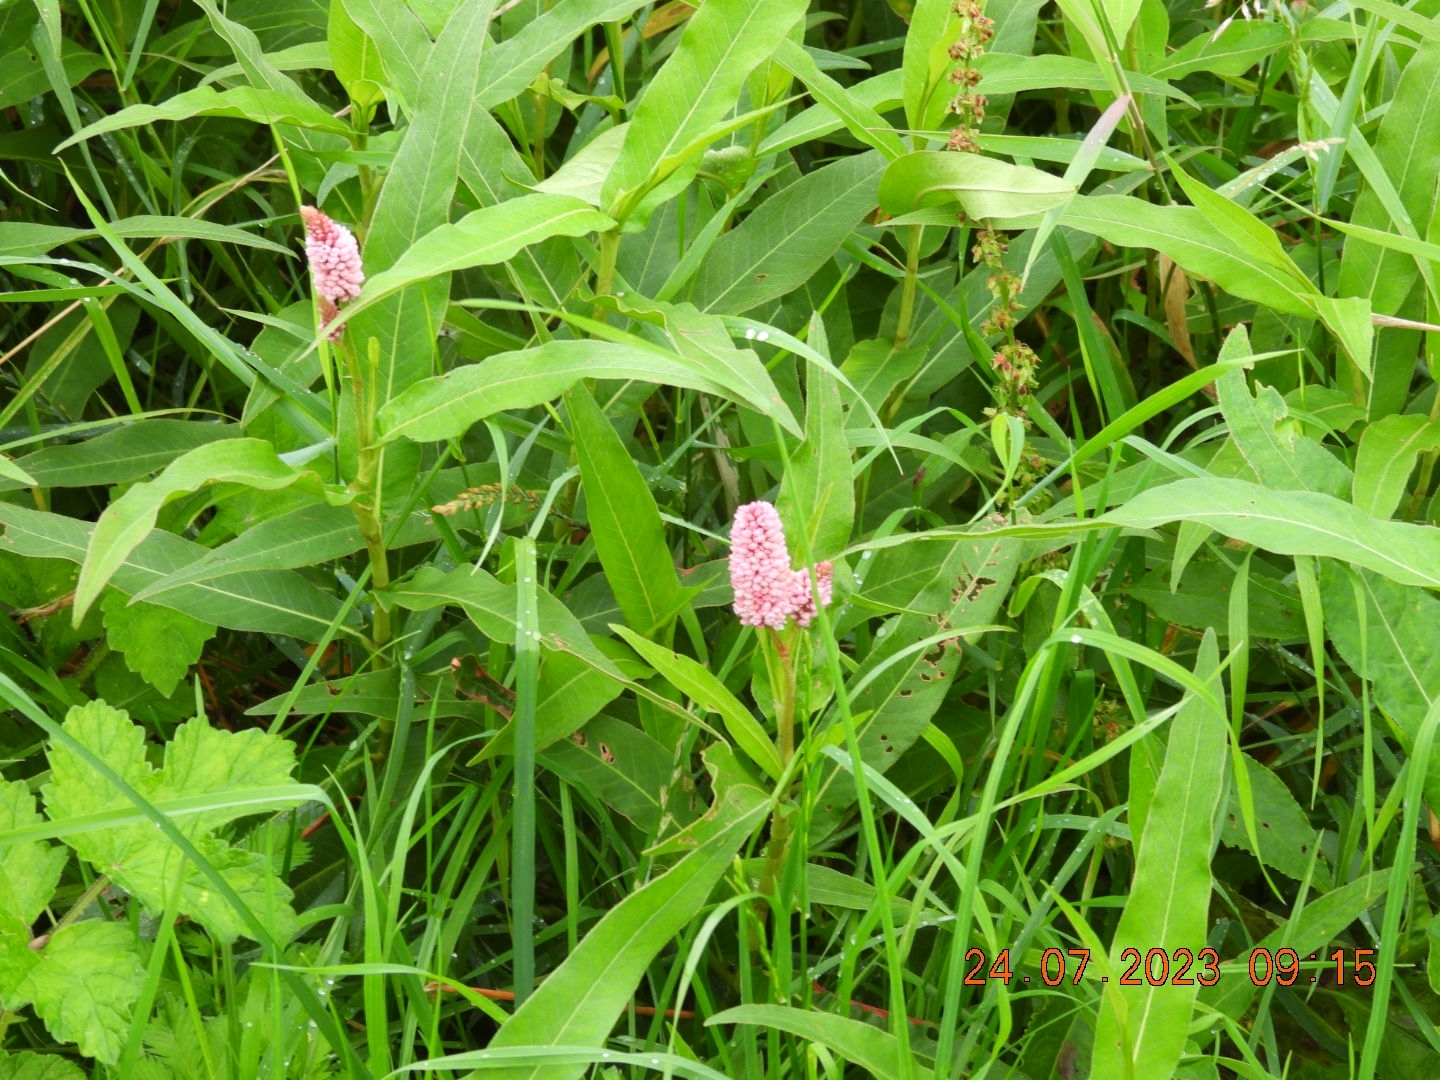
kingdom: Plantae
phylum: Tracheophyta
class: Magnoliopsida
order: Caryophyllales
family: Polygonaceae
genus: Persicaria
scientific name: Persicaria amphibia
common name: Amphibious bistort
